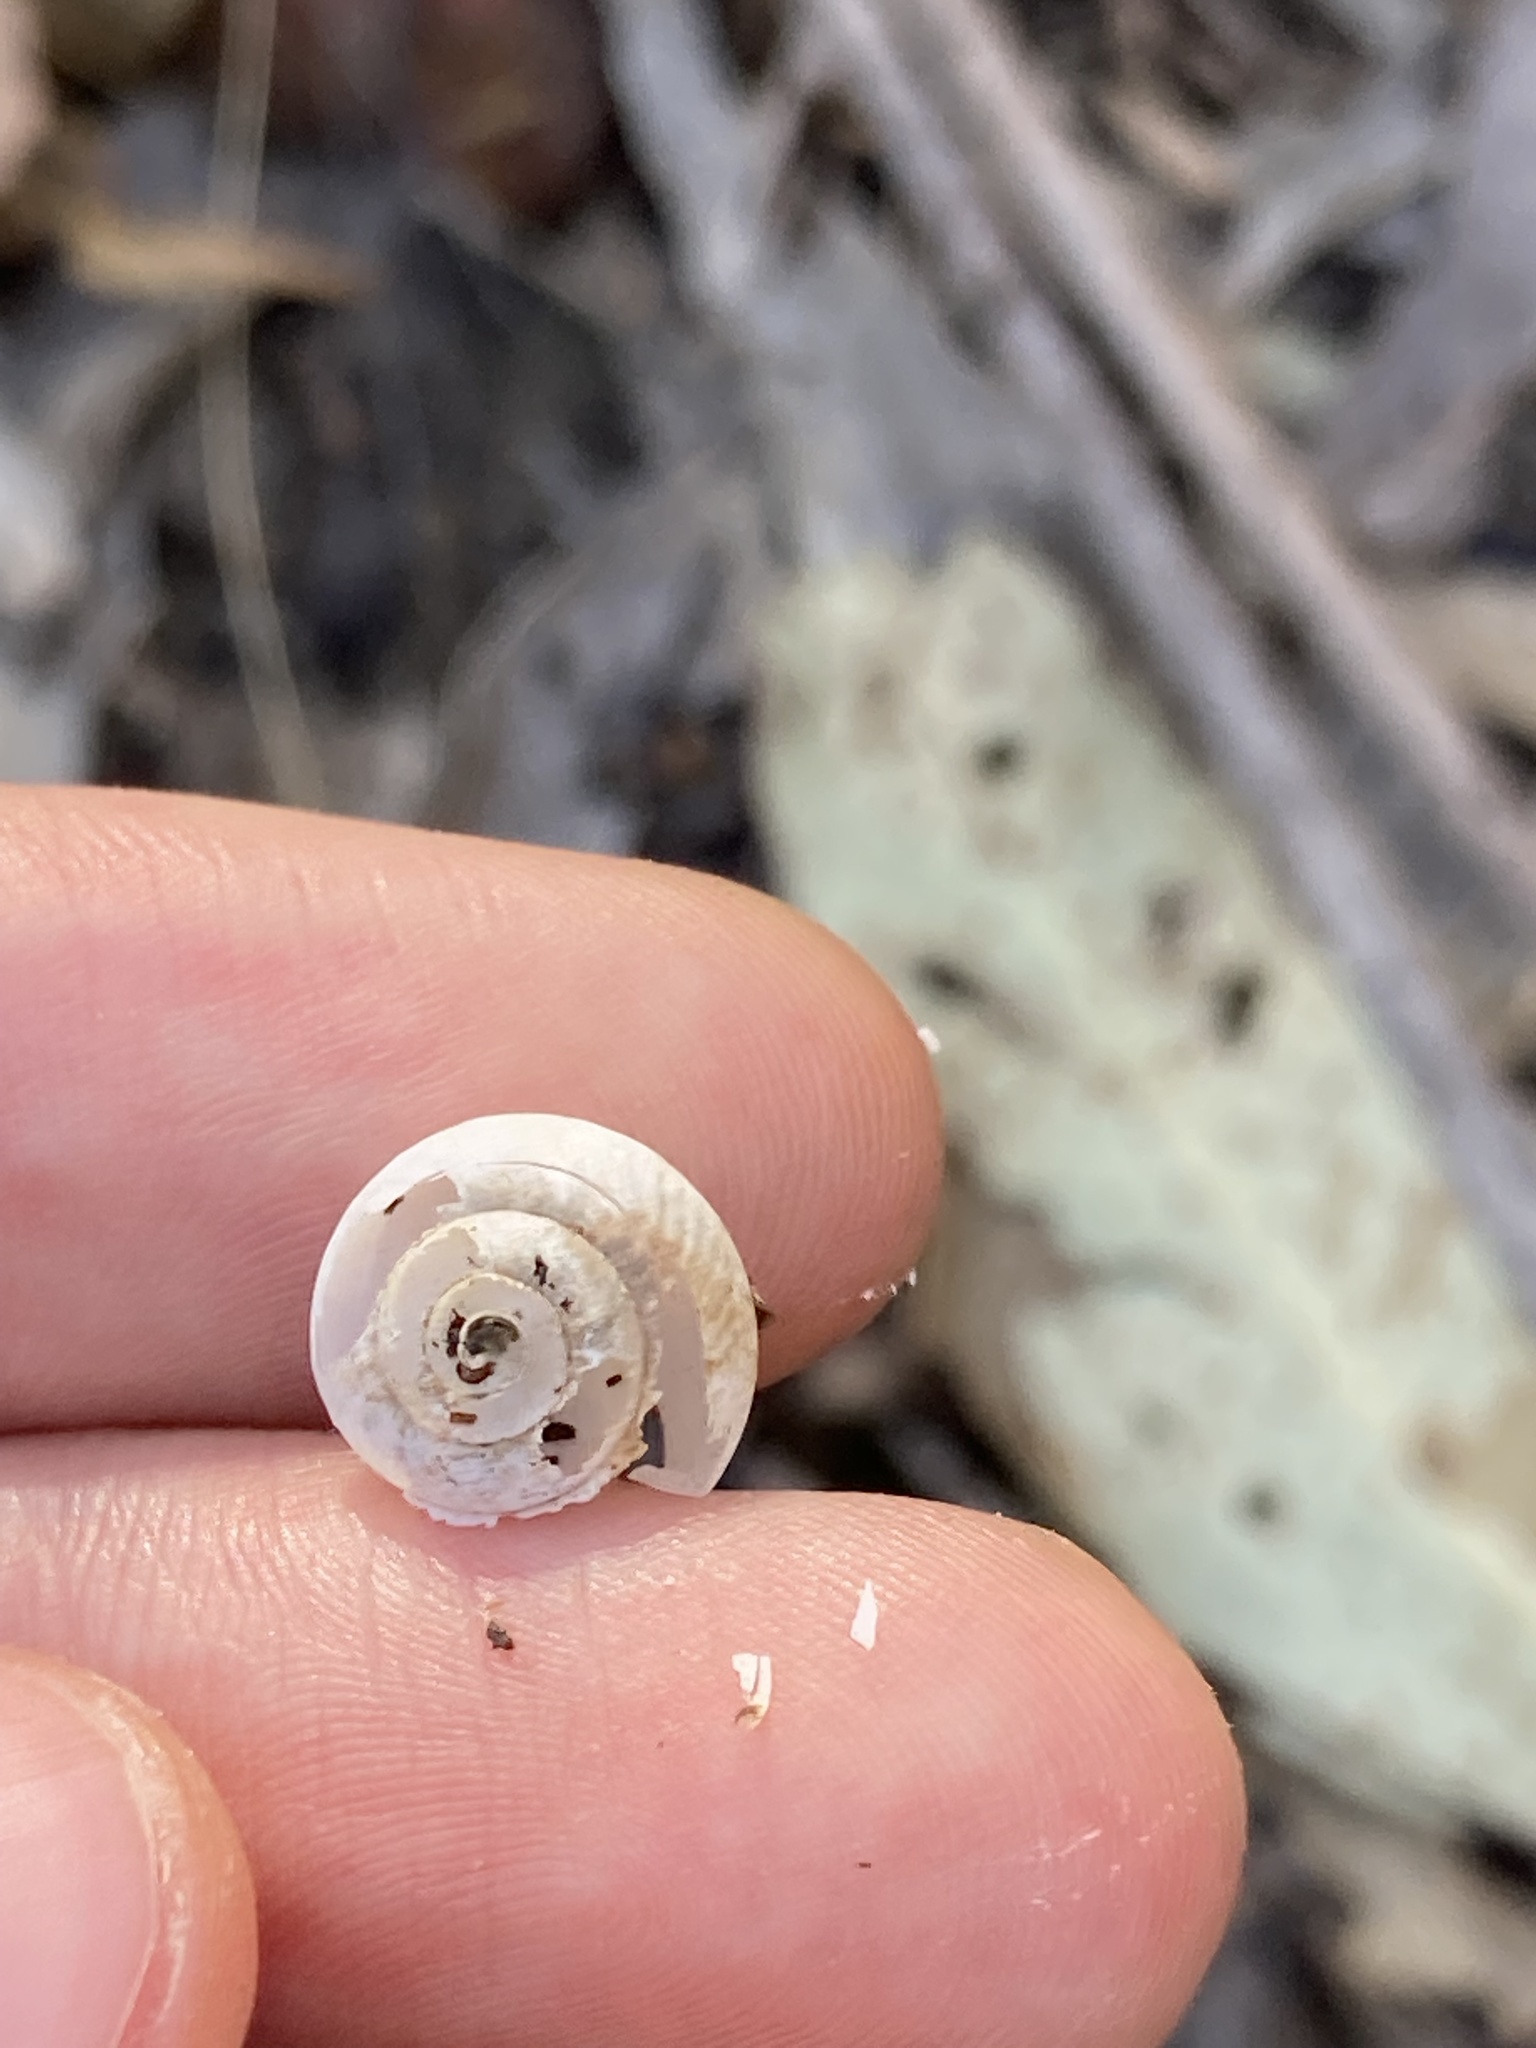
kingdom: Animalia
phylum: Mollusca
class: Gastropoda
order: Stylommatophora
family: Camaenidae
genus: Sauroconcha
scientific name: Sauroconcha sheai
